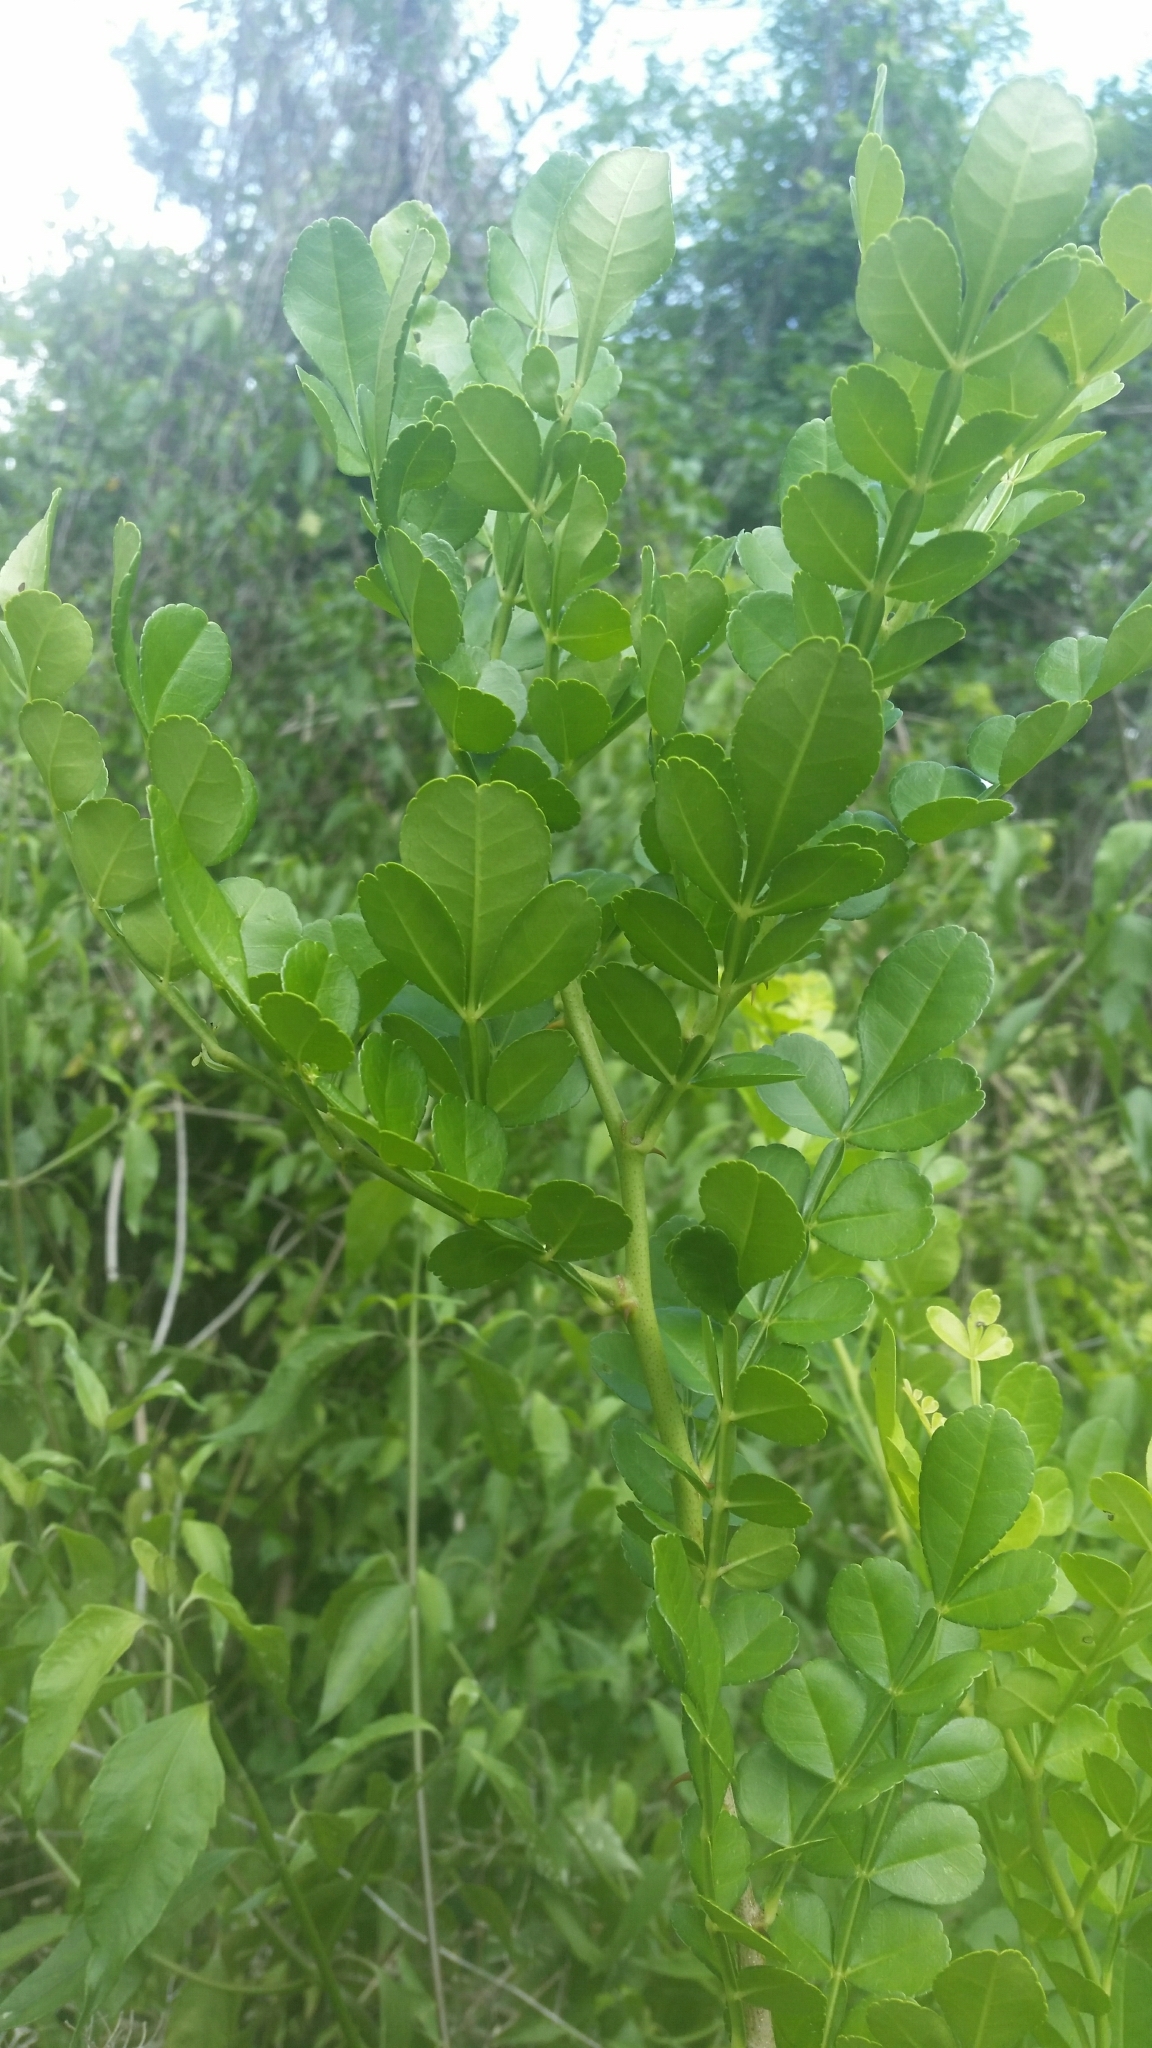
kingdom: Plantae
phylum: Tracheophyta
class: Magnoliopsida
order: Sapindales
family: Rutaceae
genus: Zanthoxylum
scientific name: Zanthoxylum fagara
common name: Lime prickly-ash
